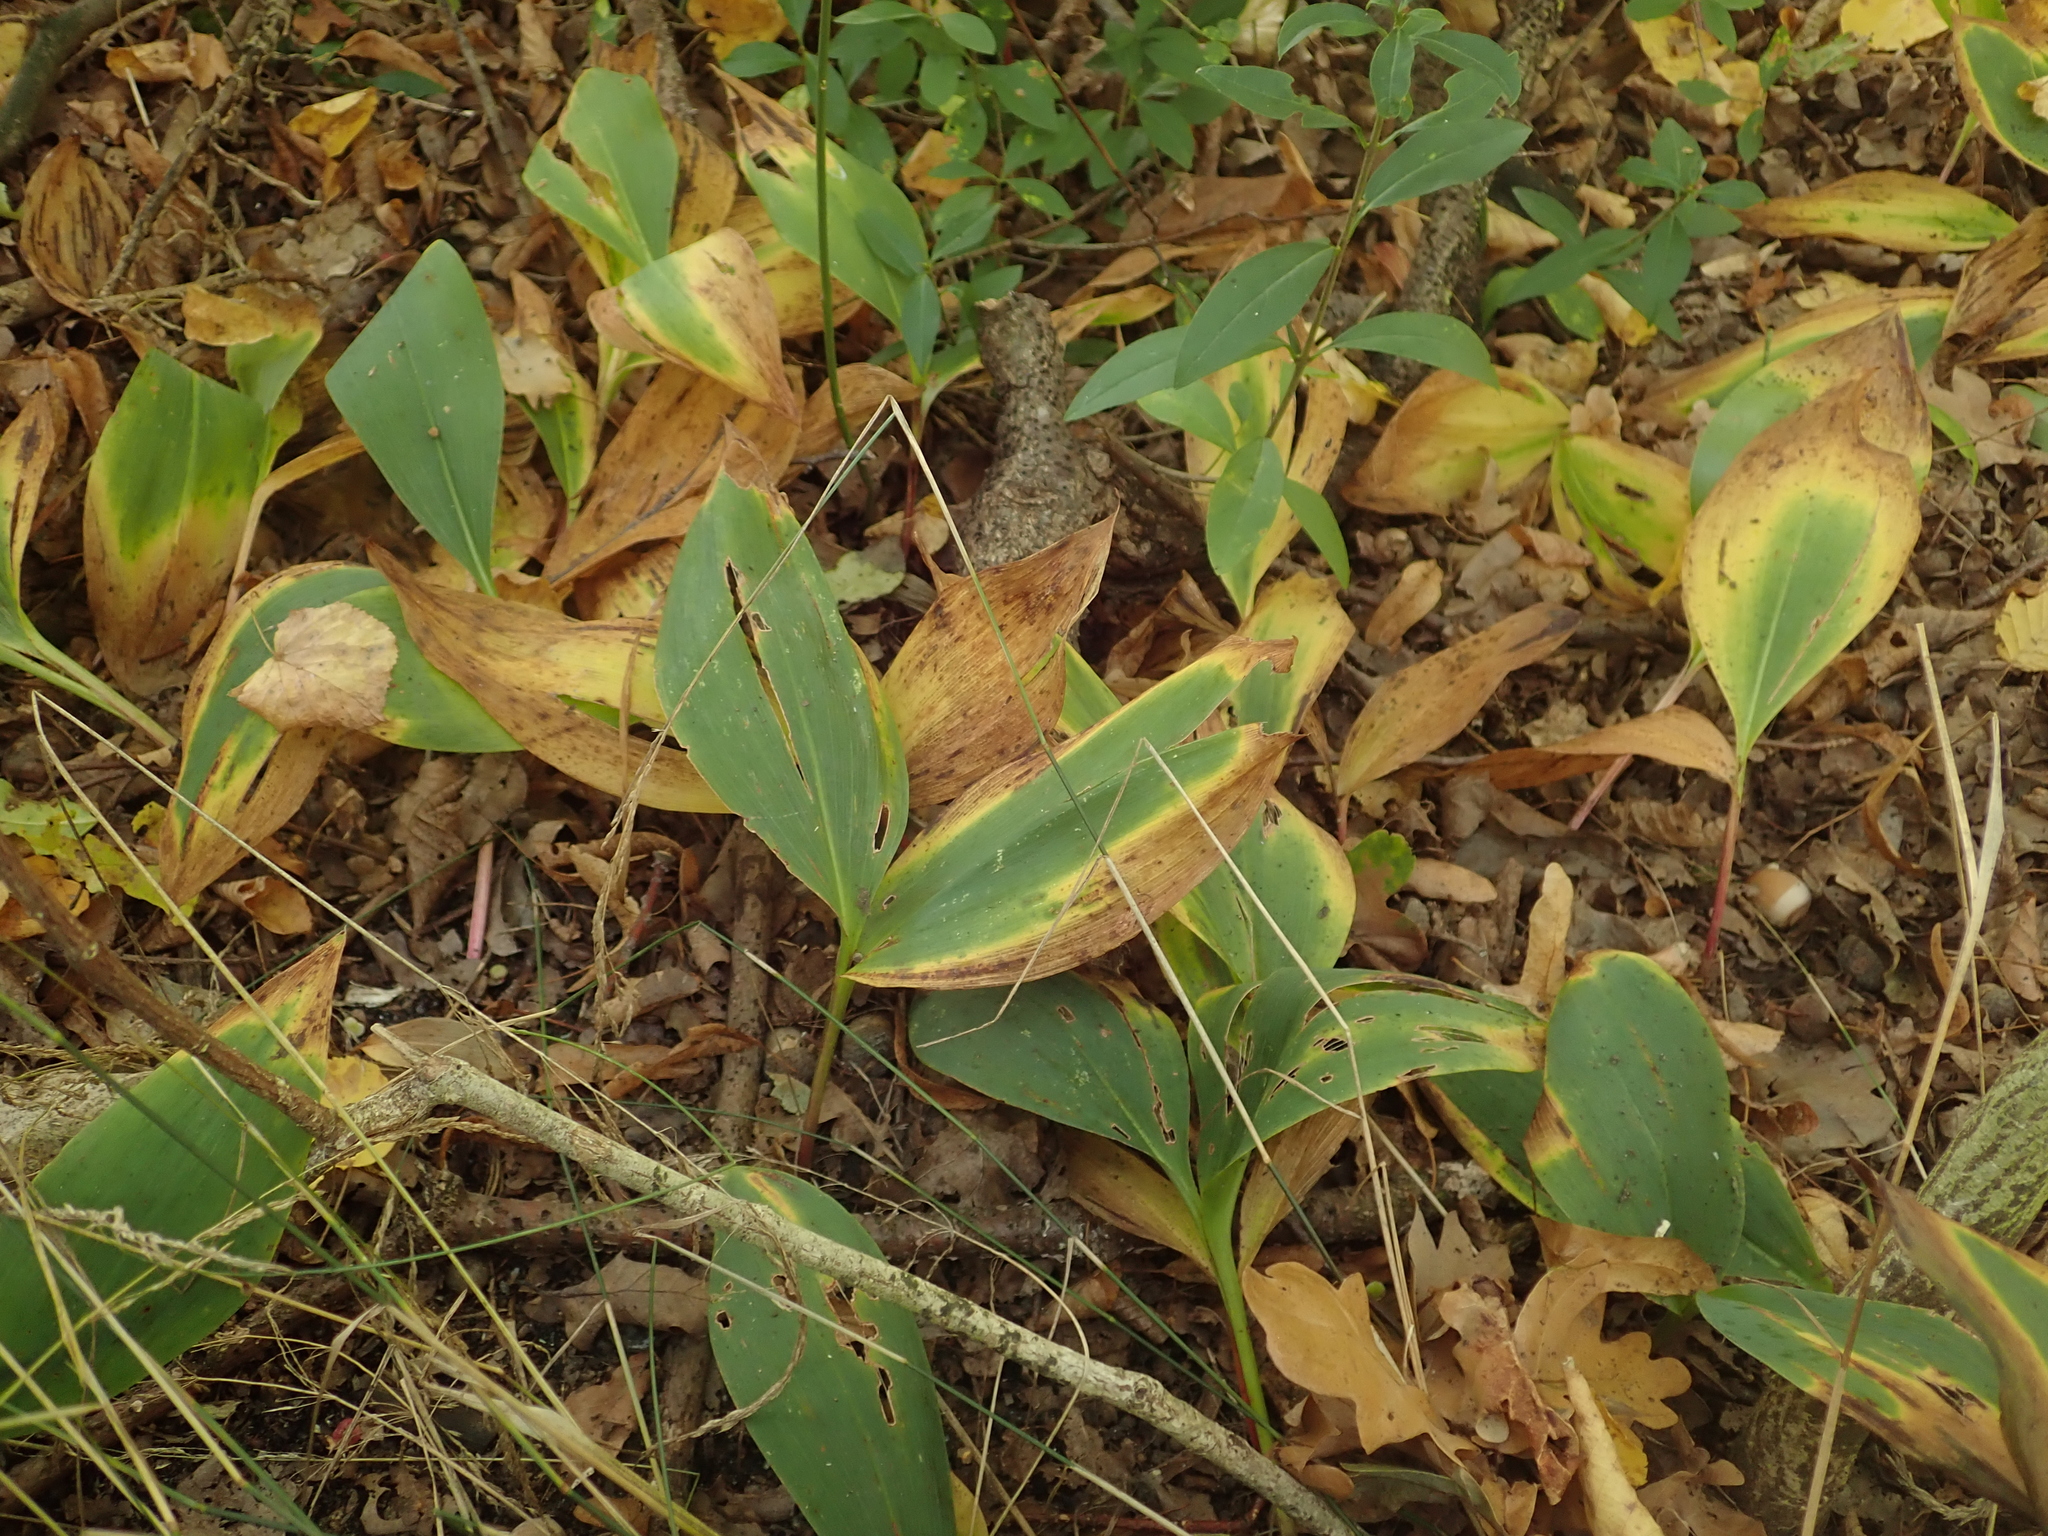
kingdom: Plantae
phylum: Tracheophyta
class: Liliopsida
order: Asparagales
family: Asparagaceae
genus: Convallaria
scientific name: Convallaria majalis
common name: Lily-of-the-valley
